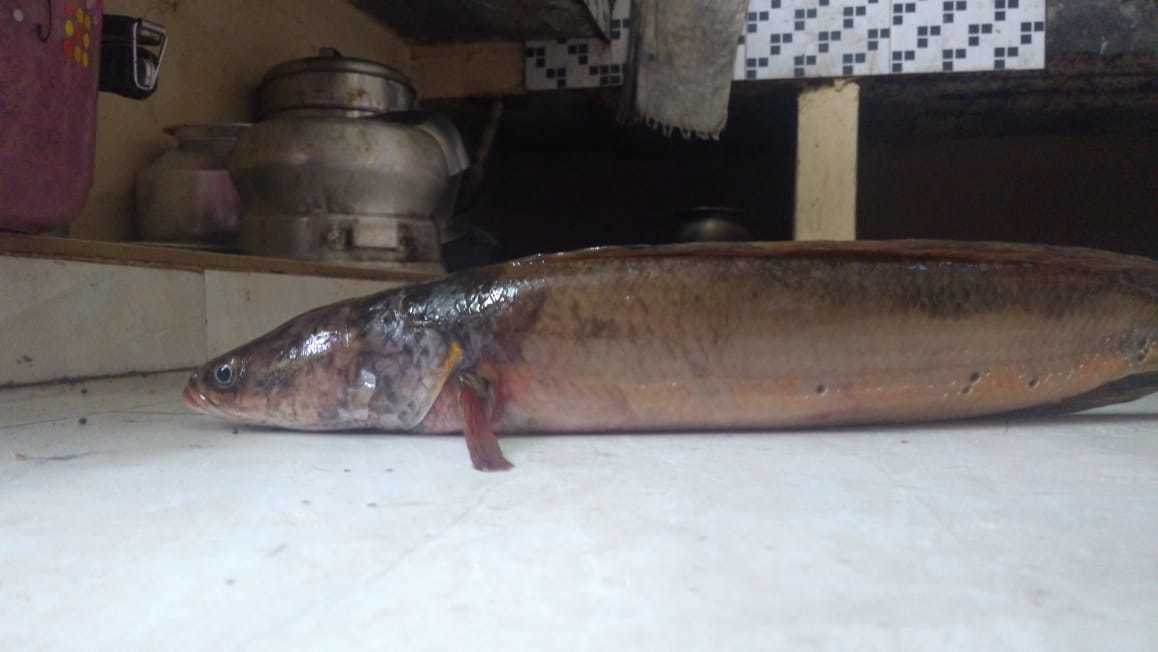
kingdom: Animalia
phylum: Chordata
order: Perciformes
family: Channidae
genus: Channa
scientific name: Channa marulius
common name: Giant snakehead
